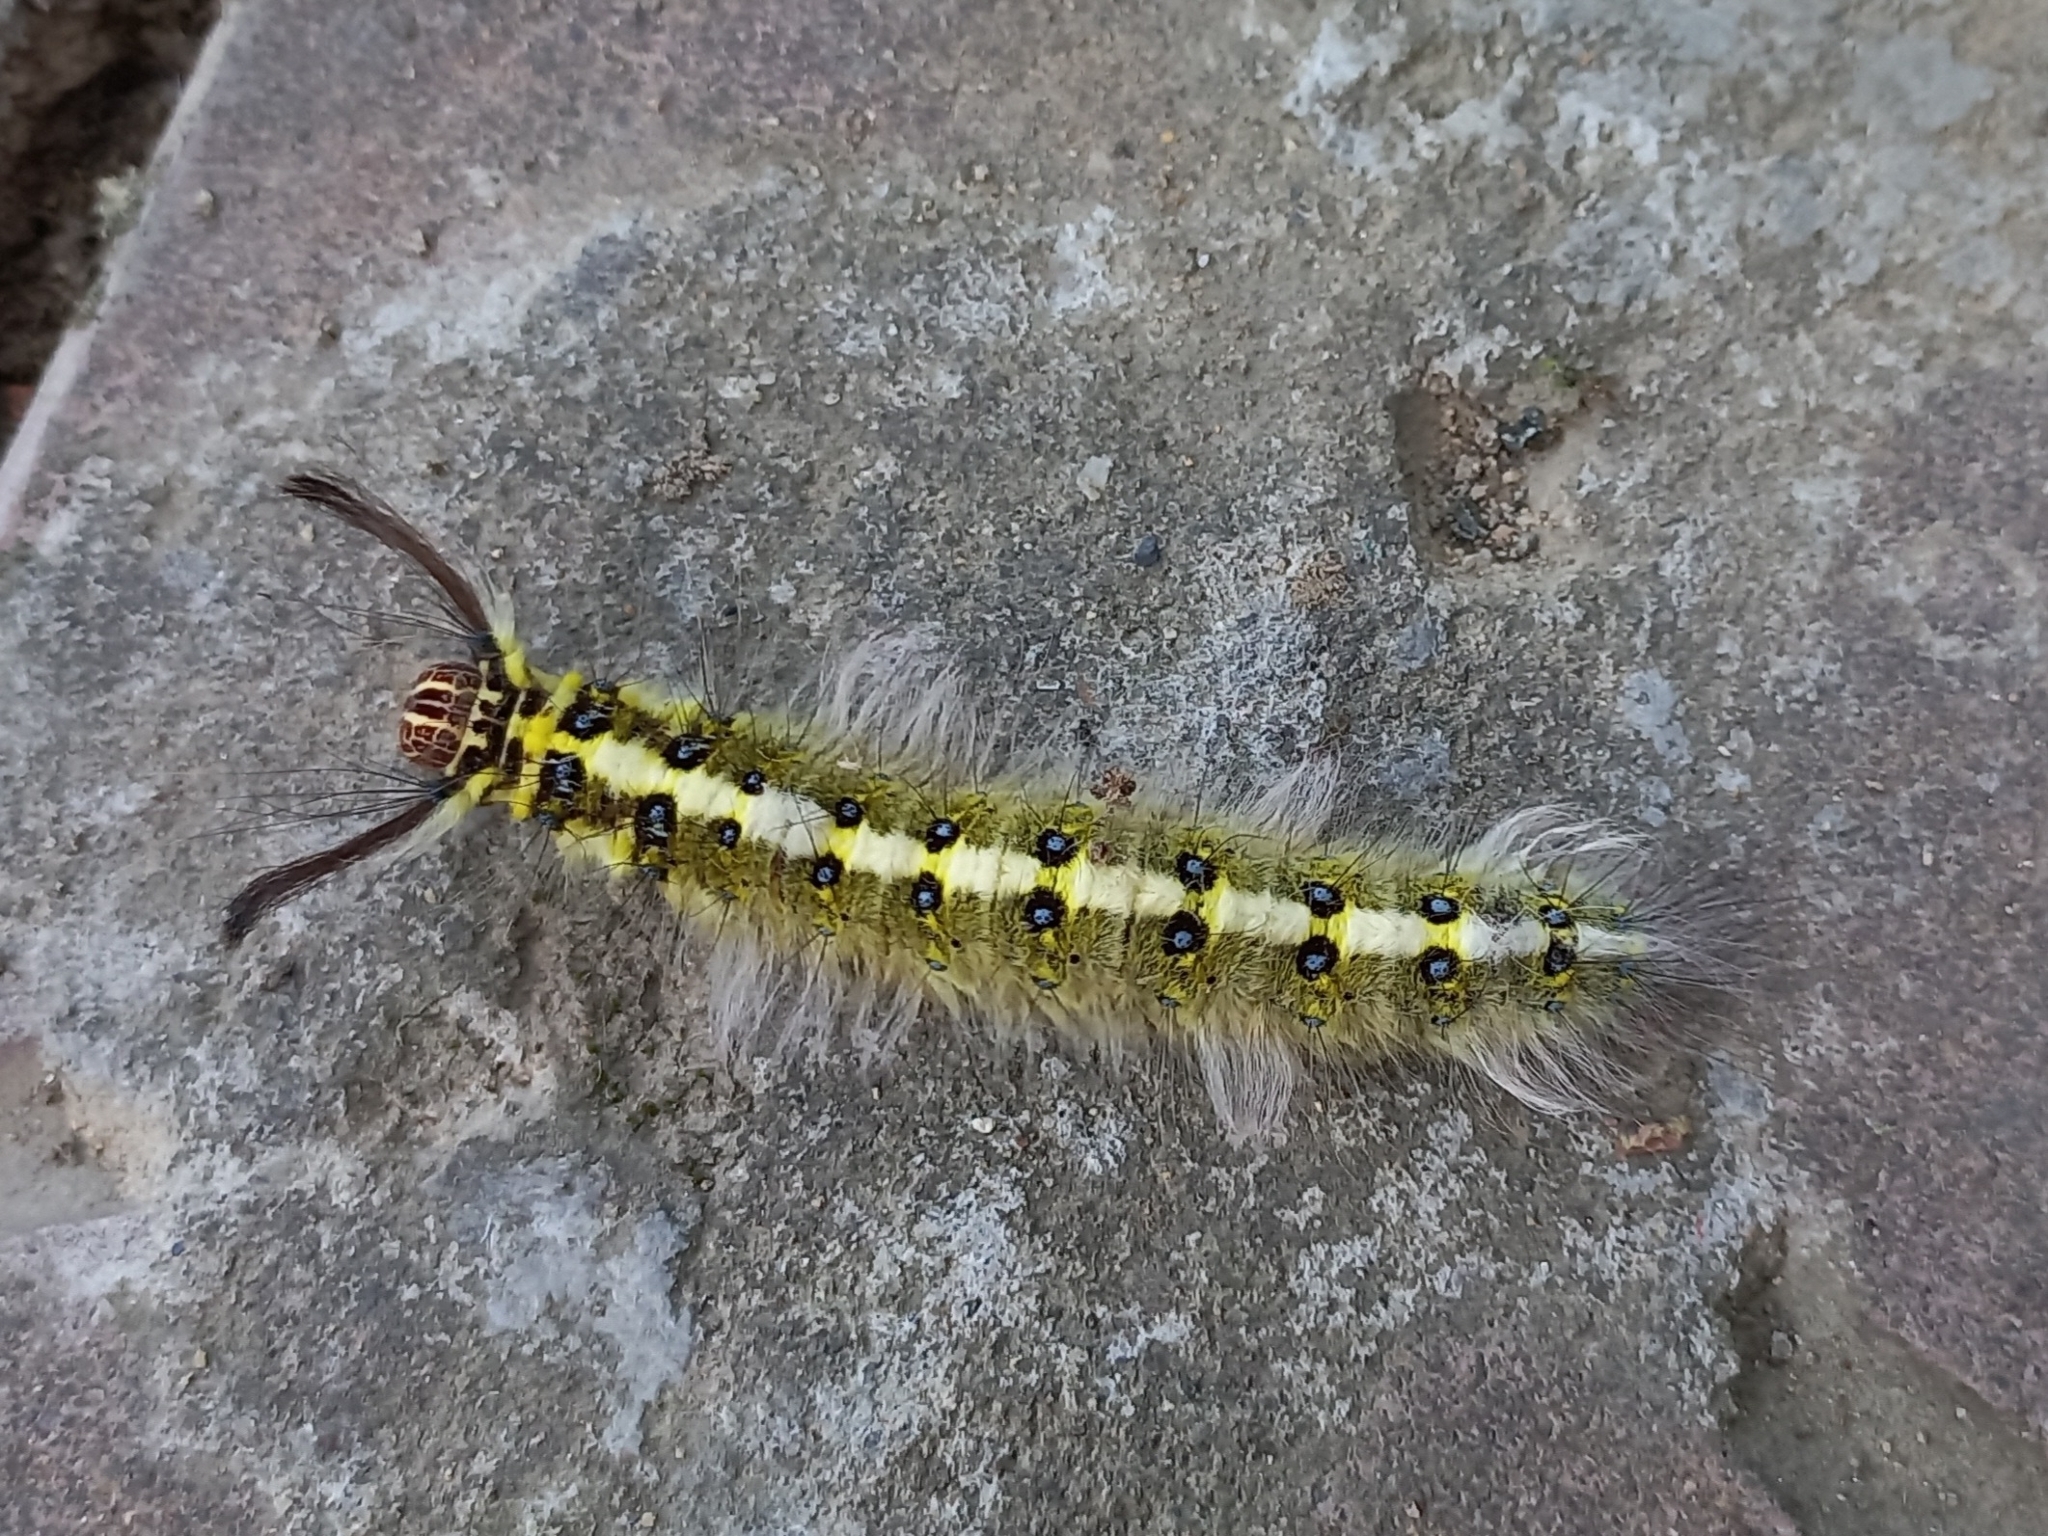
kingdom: Animalia
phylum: Arthropoda
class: Insecta
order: Lepidoptera
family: Lasiocampidae
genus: Trabala
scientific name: Trabala pallida
